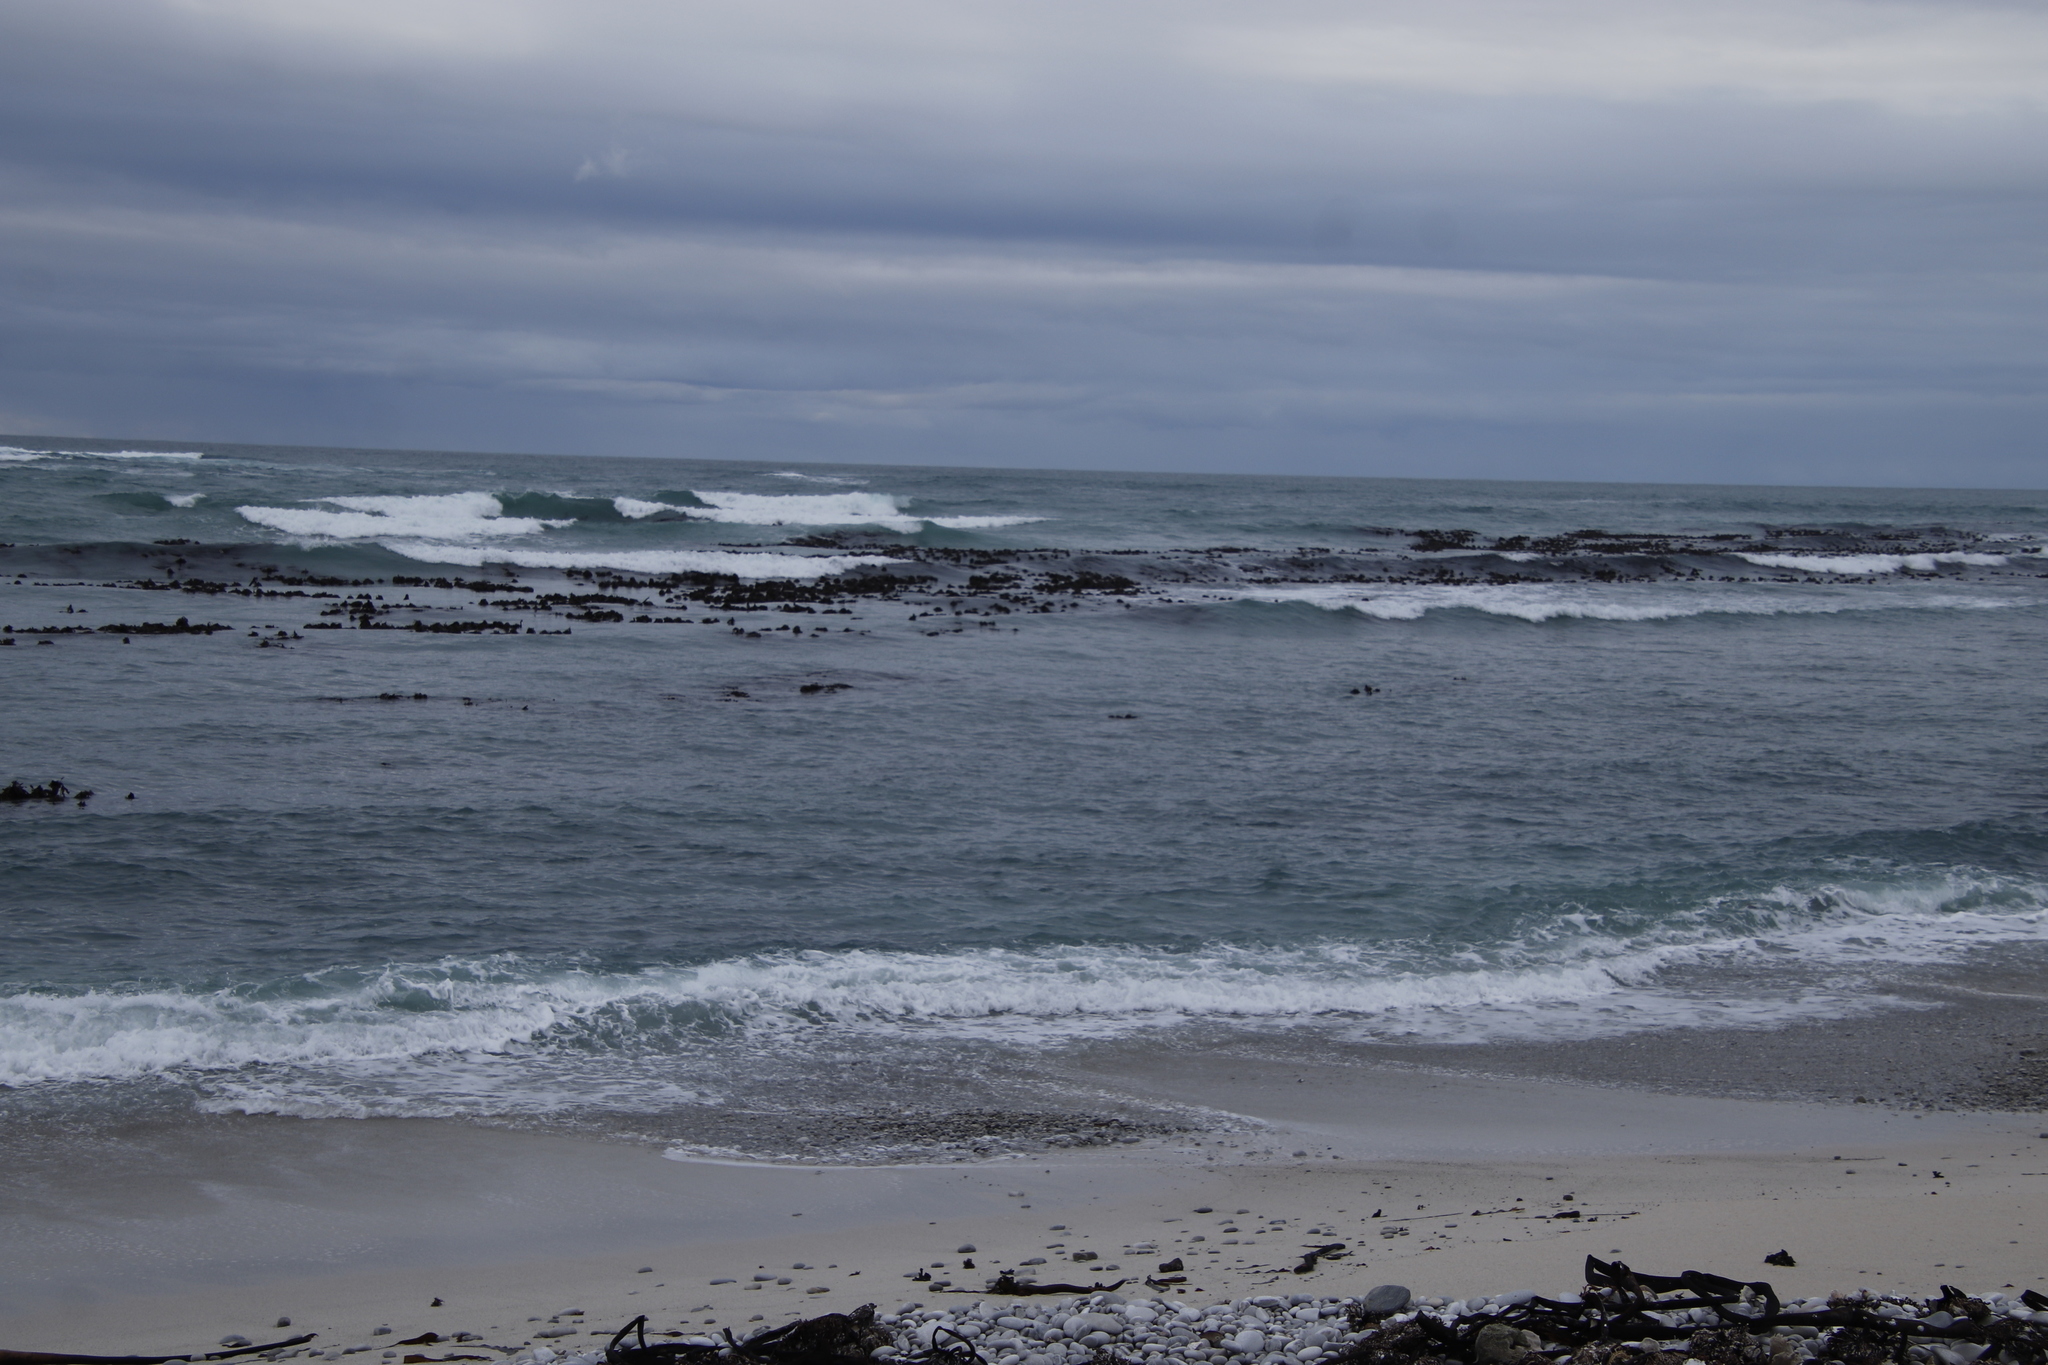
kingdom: Chromista
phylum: Ochrophyta
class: Phaeophyceae
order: Laminariales
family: Lessoniaceae
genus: Ecklonia
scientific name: Ecklonia
